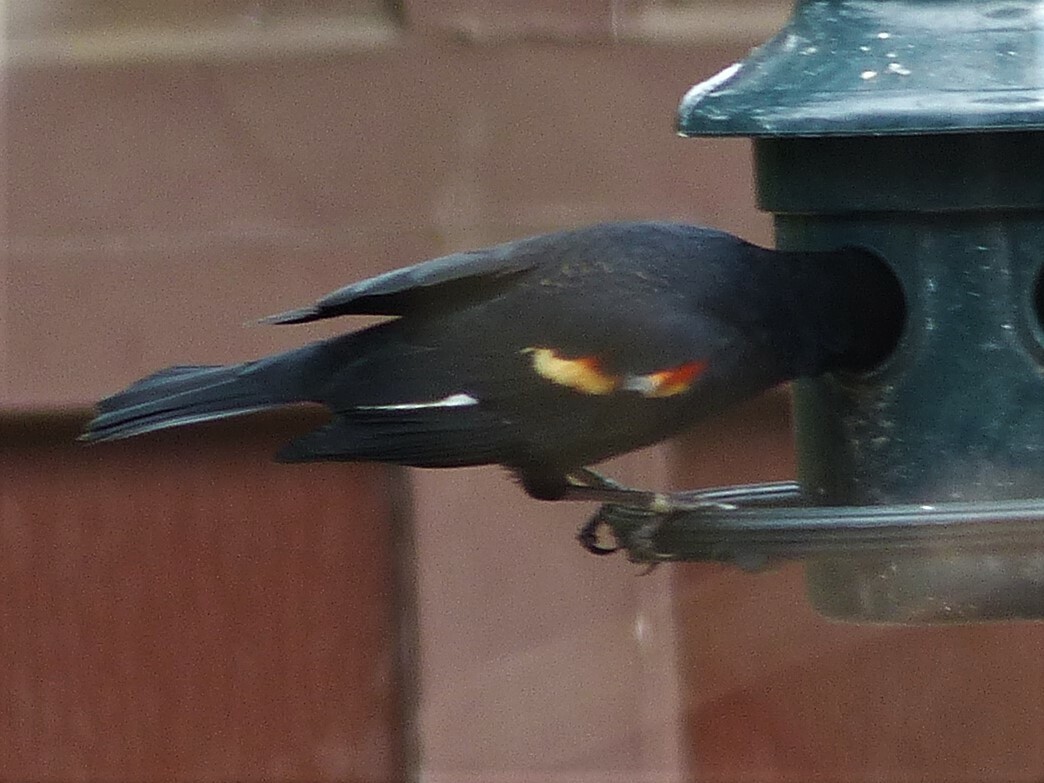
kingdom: Animalia
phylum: Chordata
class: Aves
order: Passeriformes
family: Icteridae
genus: Agelaius
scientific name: Agelaius phoeniceus
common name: Red-winged blackbird
